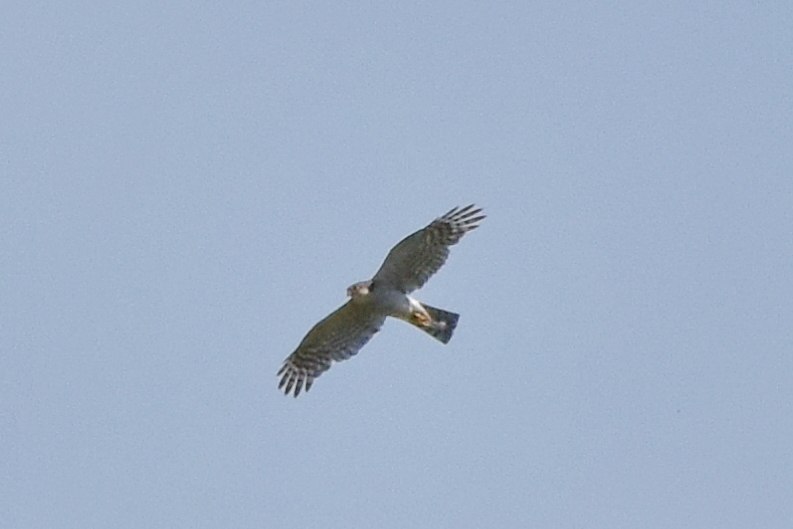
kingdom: Animalia
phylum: Chordata
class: Aves
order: Accipitriformes
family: Accipitridae
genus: Accipiter
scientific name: Accipiter nisus
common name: Eurasian sparrowhawk
